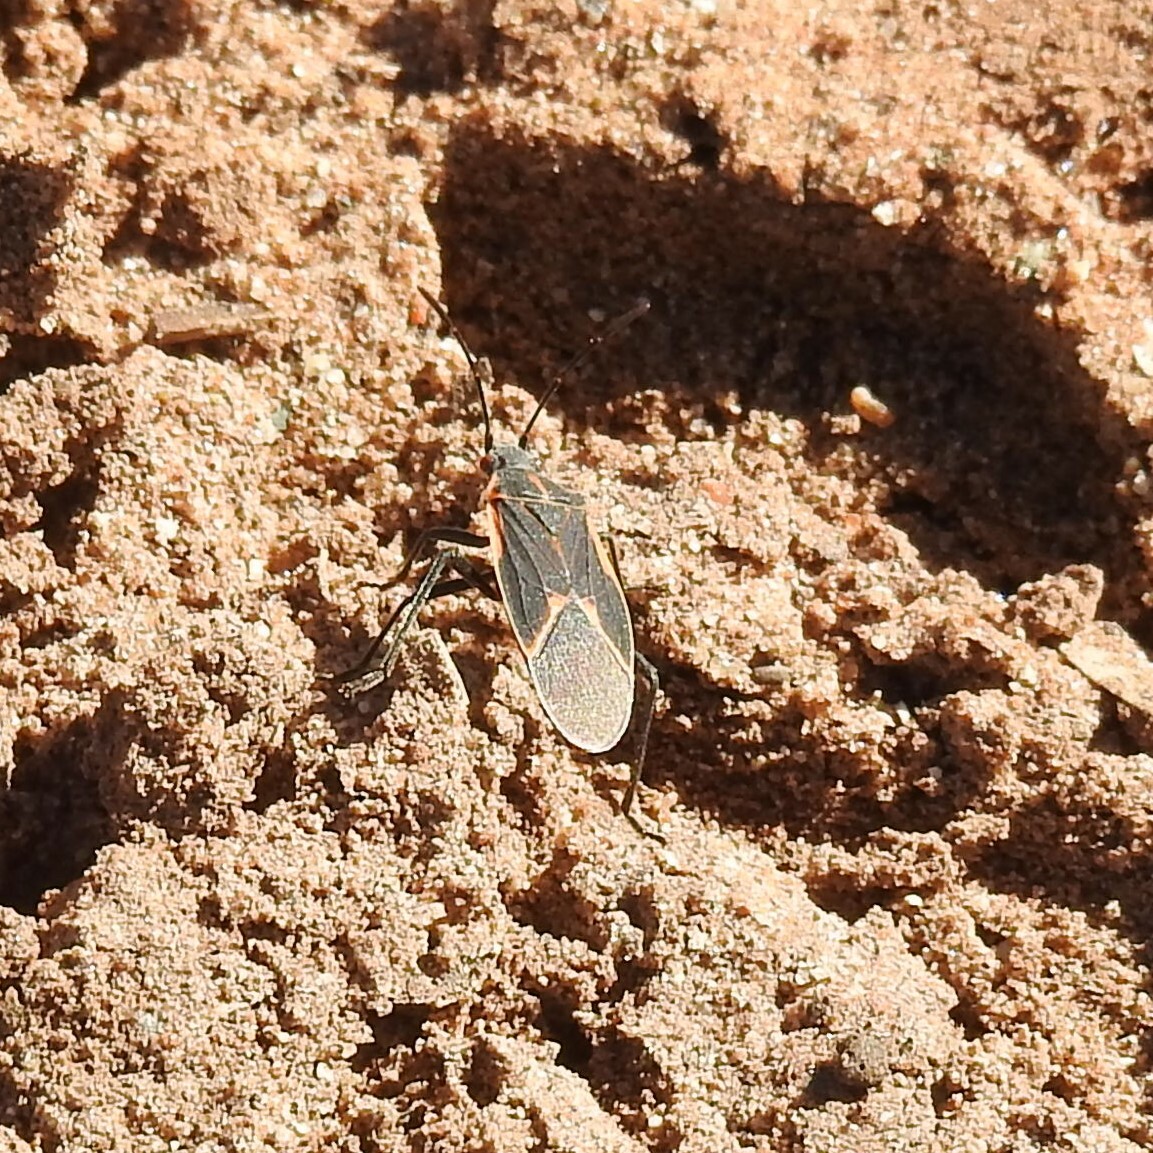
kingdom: Animalia
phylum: Arthropoda
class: Insecta
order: Hemiptera
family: Rhopalidae
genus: Boisea
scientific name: Boisea trivittata
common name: Boxelder bug
